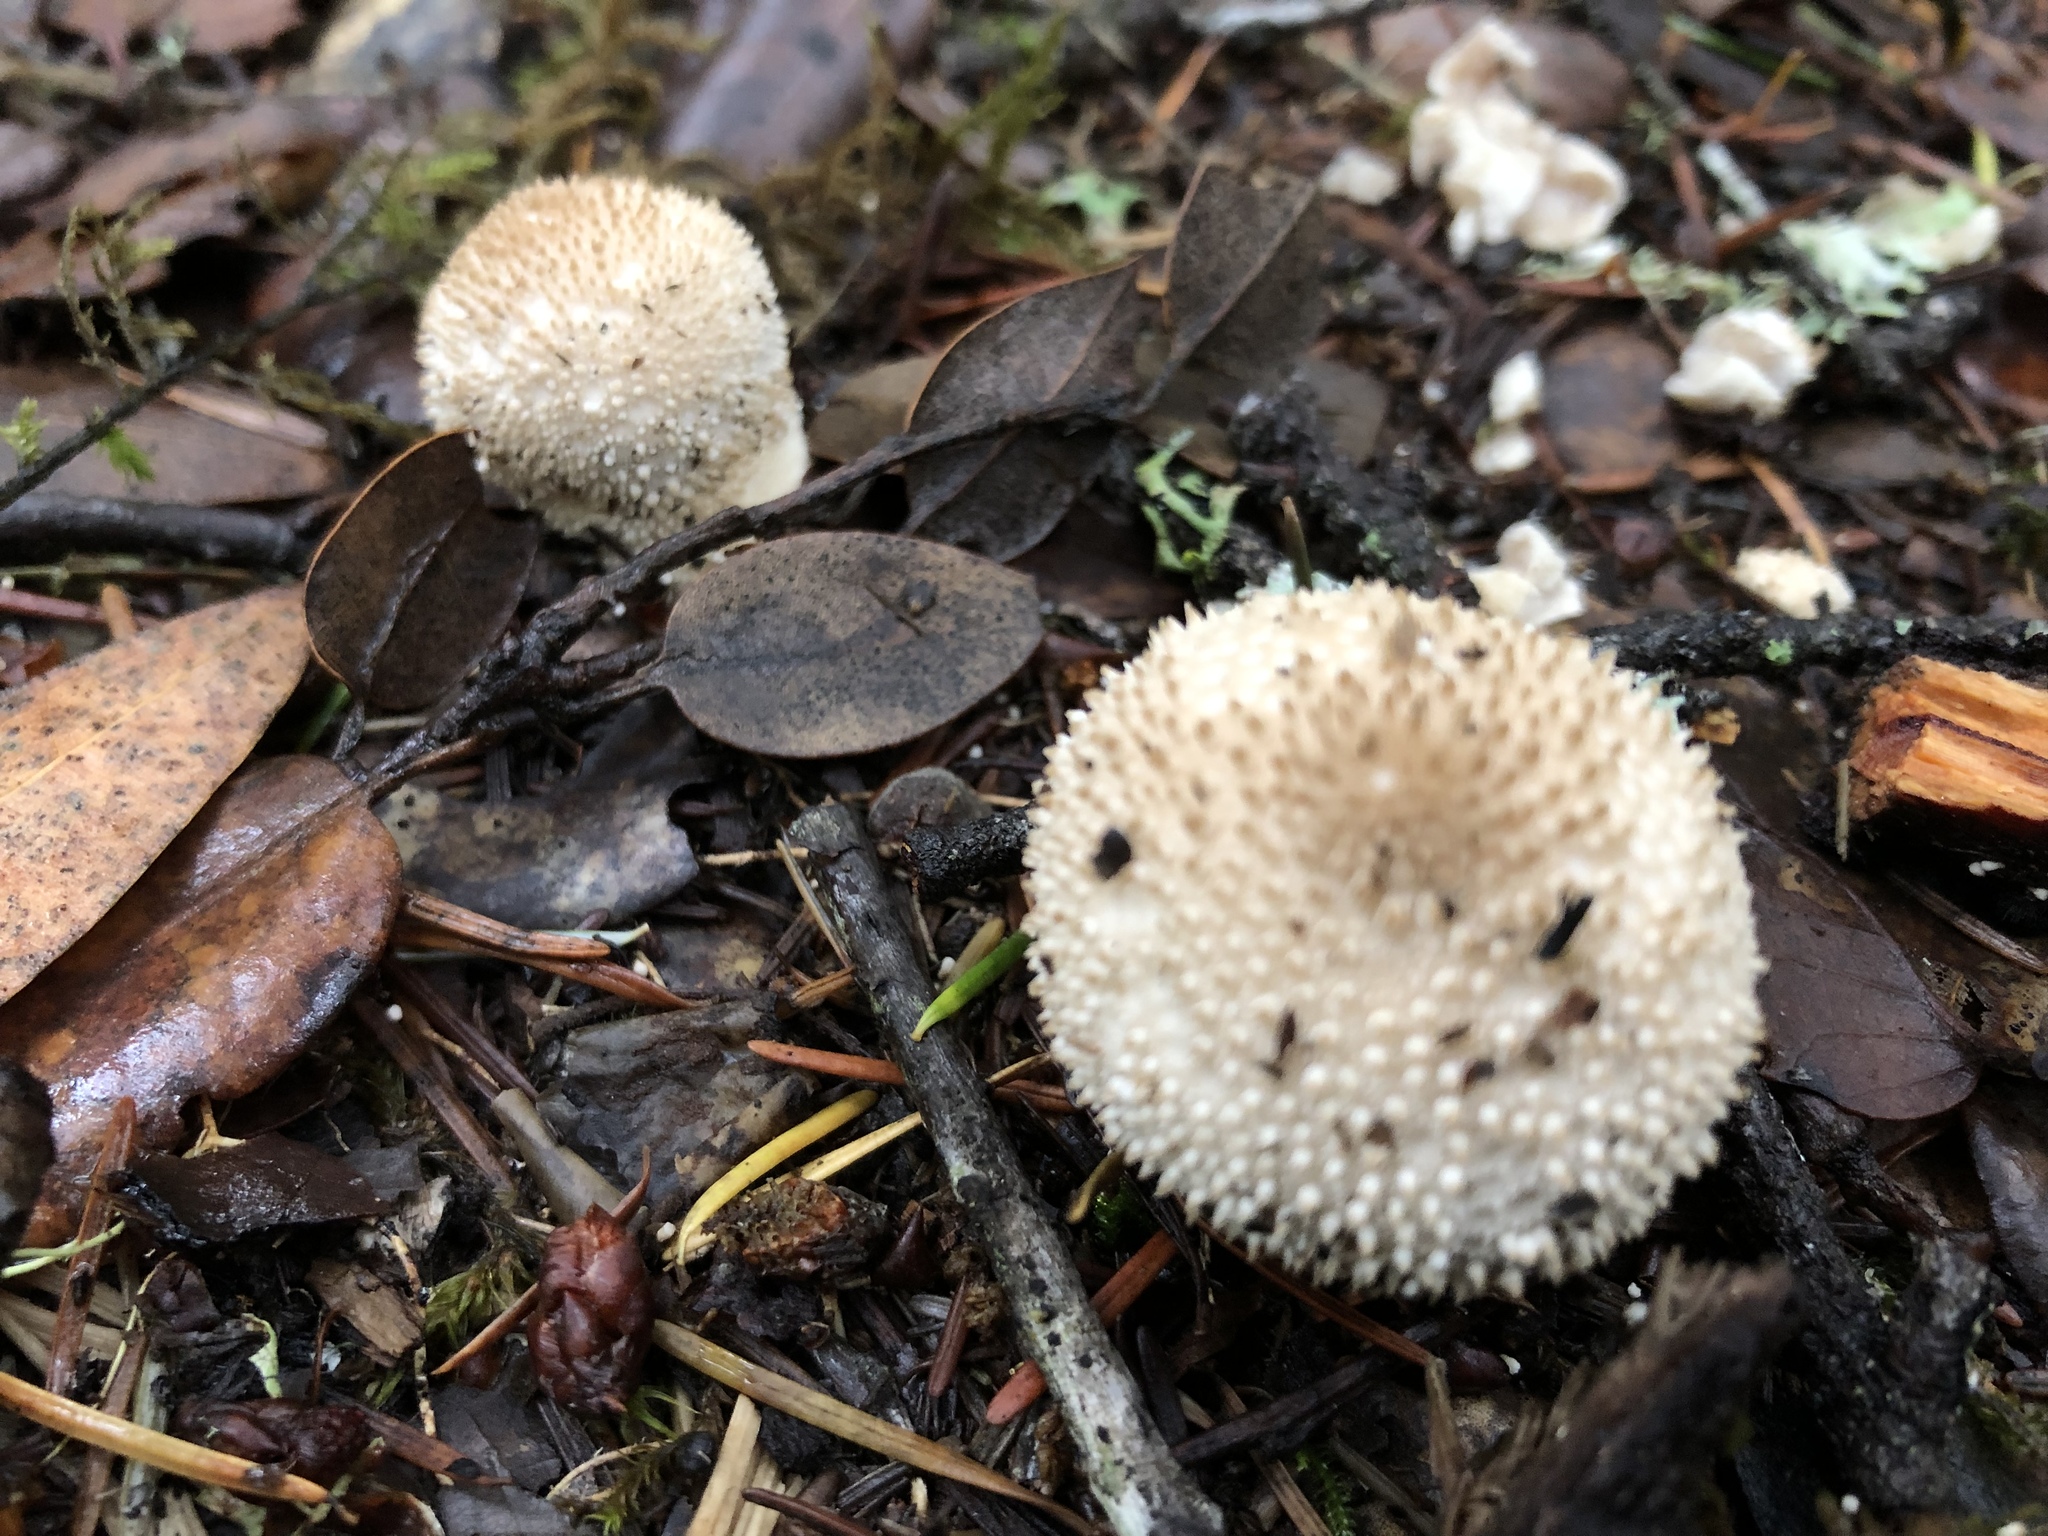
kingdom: Fungi
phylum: Basidiomycota
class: Agaricomycetes
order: Agaricales
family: Lycoperdaceae
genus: Lycoperdon
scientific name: Lycoperdon perlatum
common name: Common puffball
